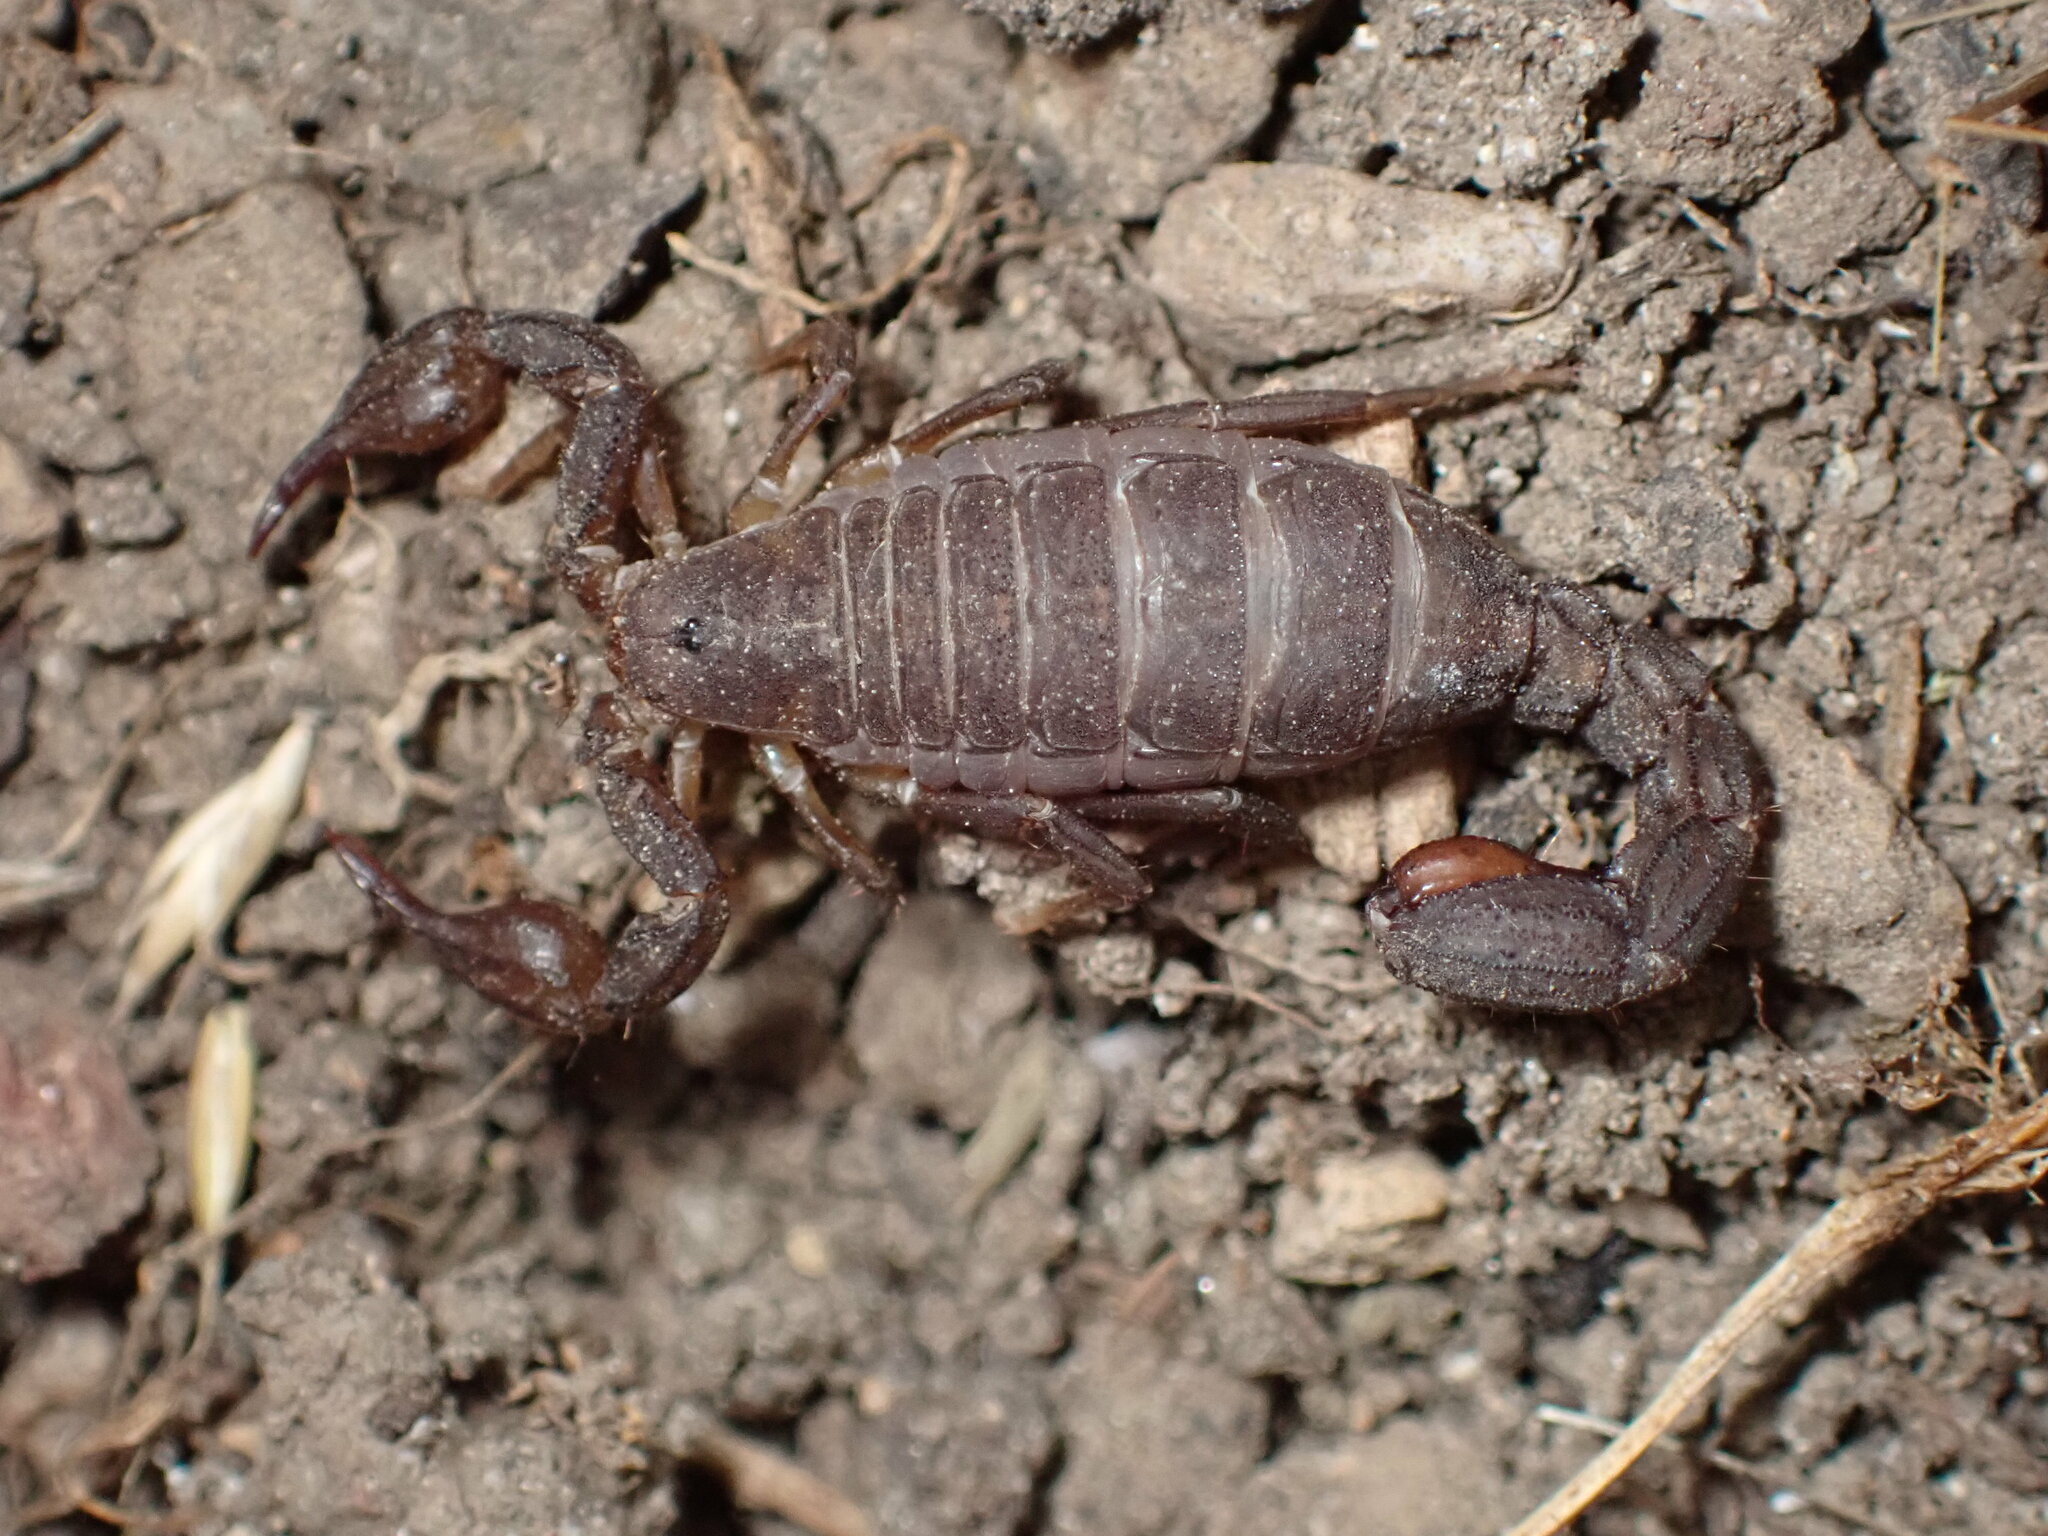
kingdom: Animalia
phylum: Arthropoda
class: Arachnida
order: Scorpiones
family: Vaejovidae
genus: Catalinia
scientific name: Catalinia thompsoni
